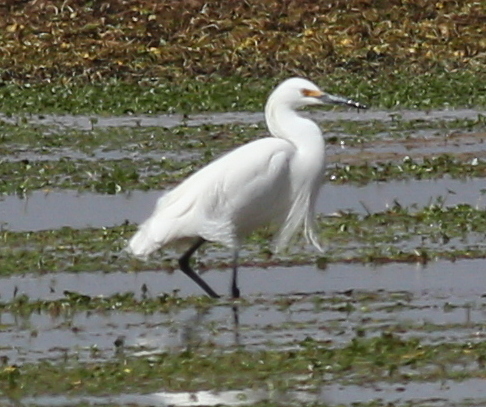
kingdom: Animalia
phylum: Chordata
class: Aves
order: Pelecaniformes
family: Ardeidae
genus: Egretta
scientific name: Egretta thula
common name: Snowy egret
